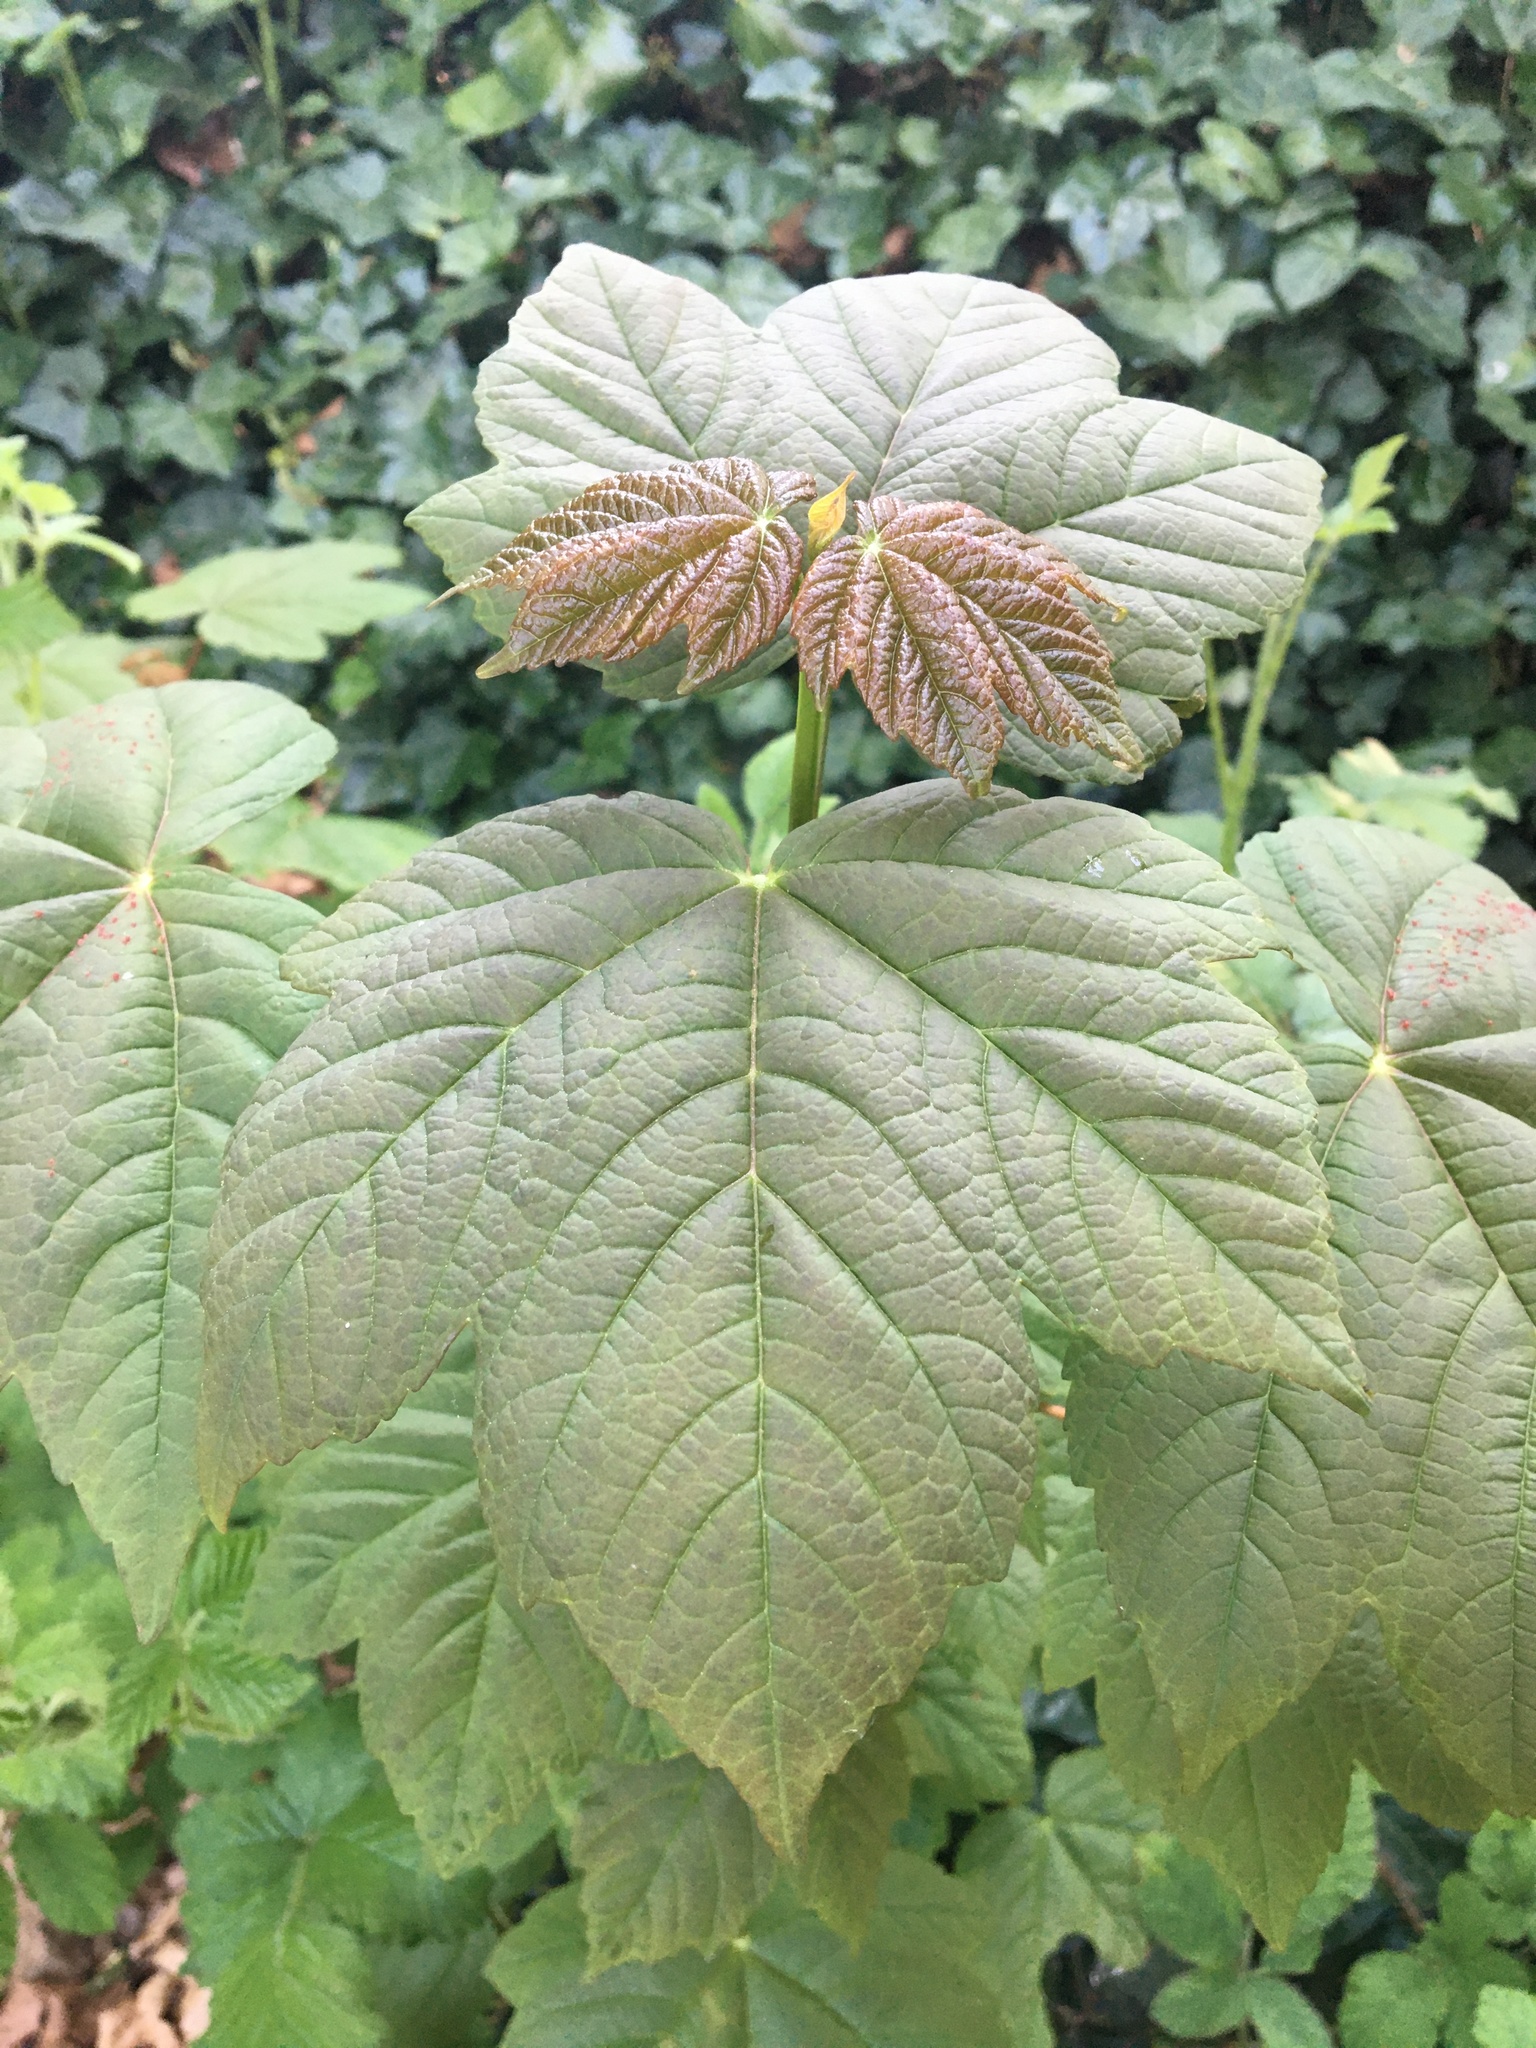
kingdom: Plantae
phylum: Tracheophyta
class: Magnoliopsida
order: Sapindales
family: Sapindaceae
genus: Acer
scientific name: Acer pseudoplatanus
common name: Sycamore
